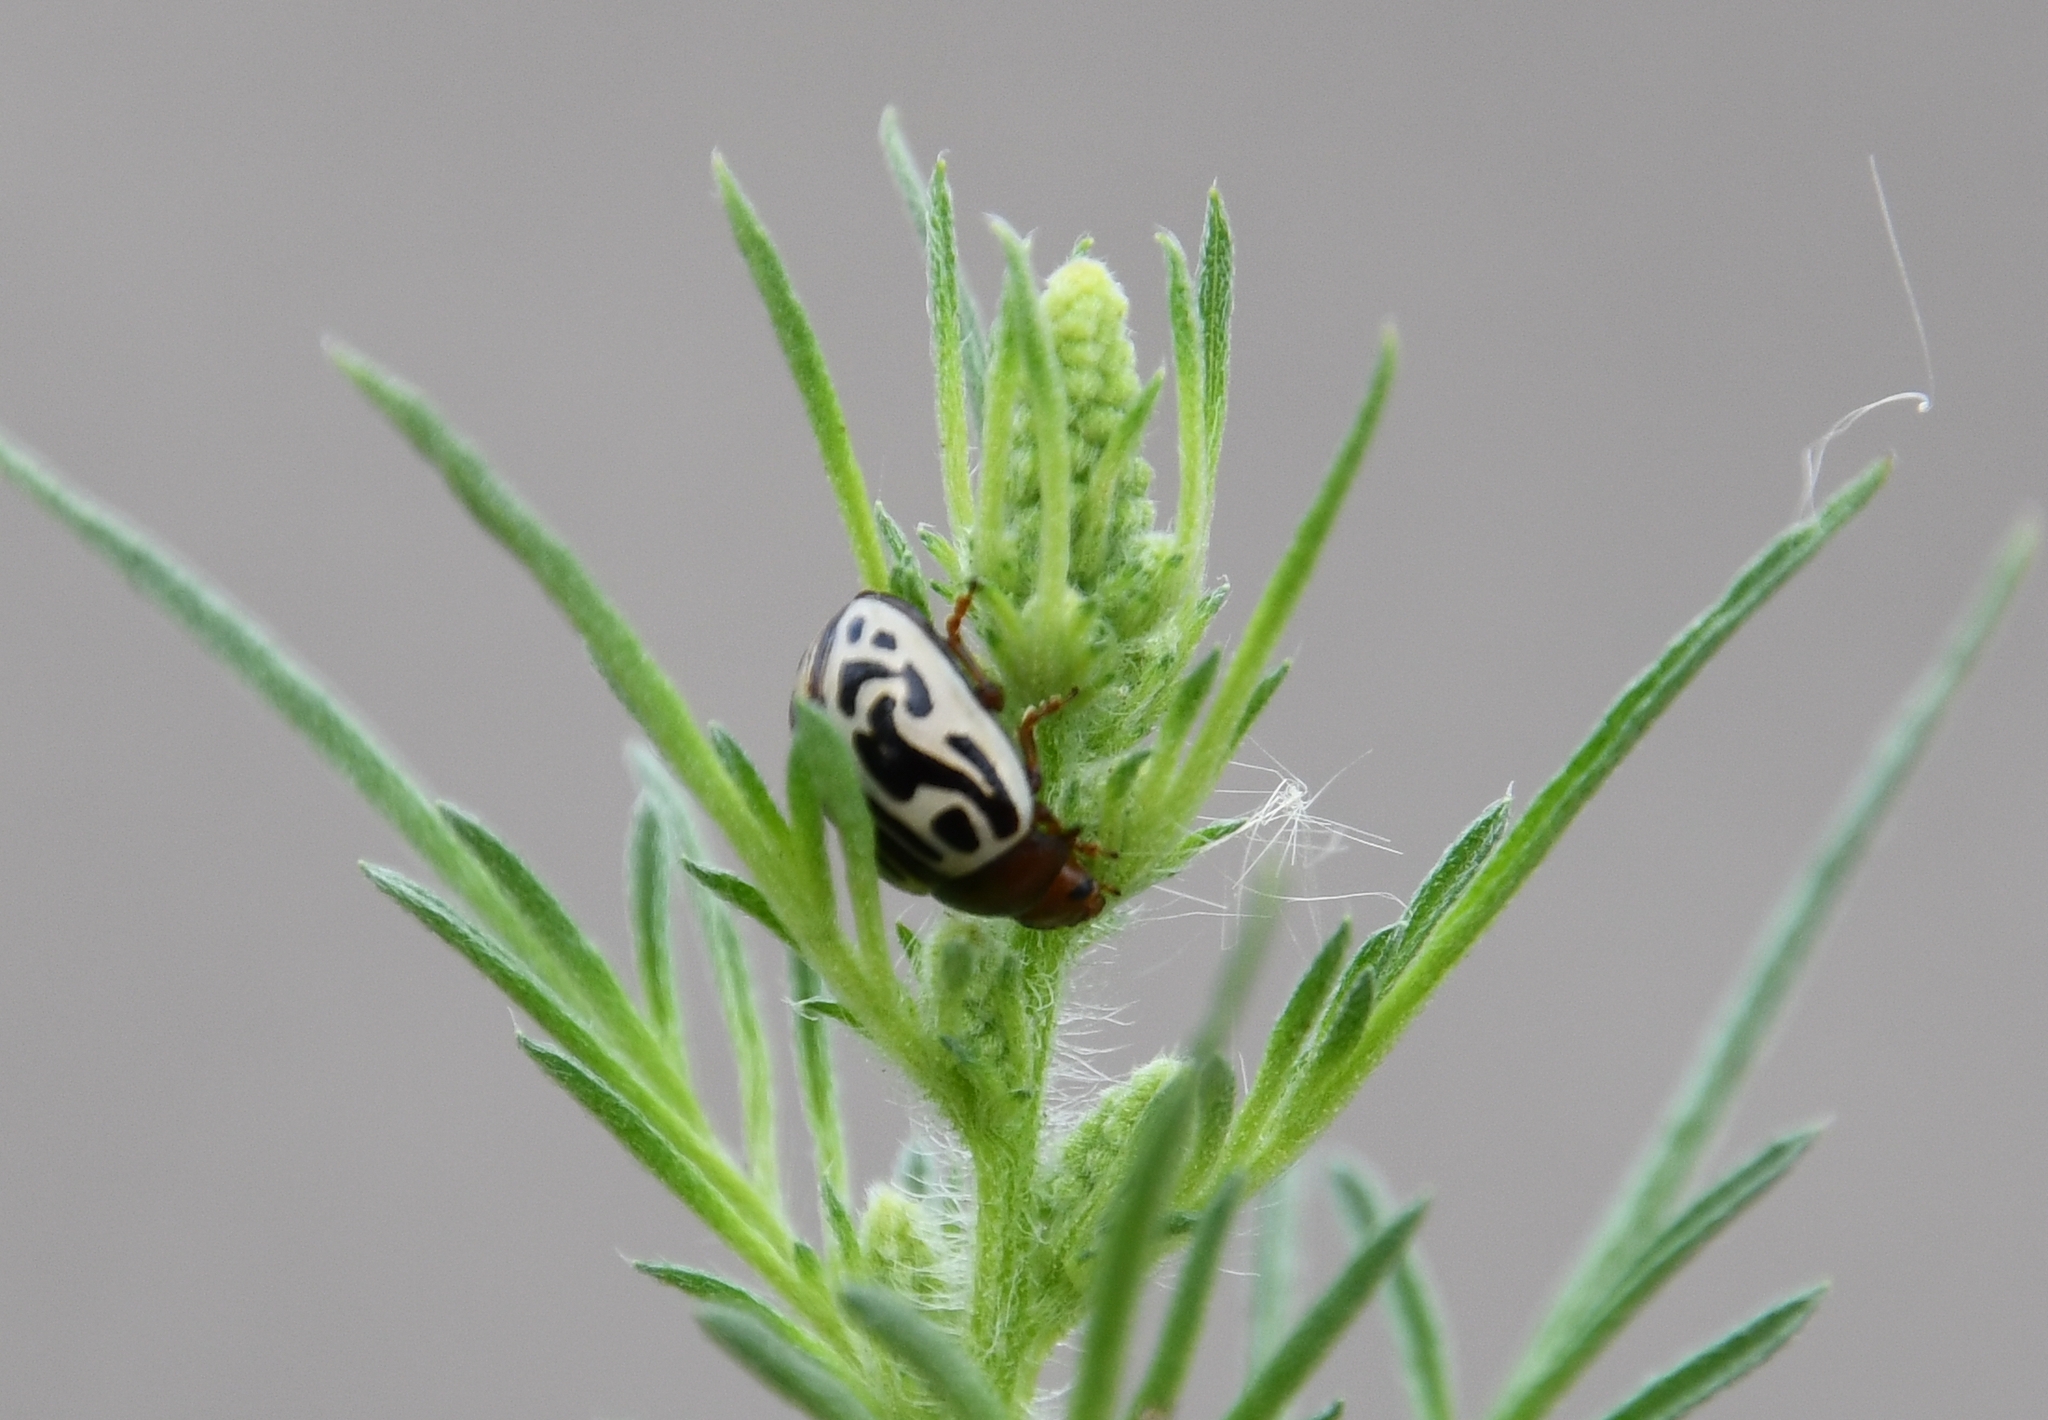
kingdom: Animalia
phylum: Arthropoda
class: Insecta
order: Coleoptera
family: Chrysomelidae
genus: Calligrapha
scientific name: Calligrapha
